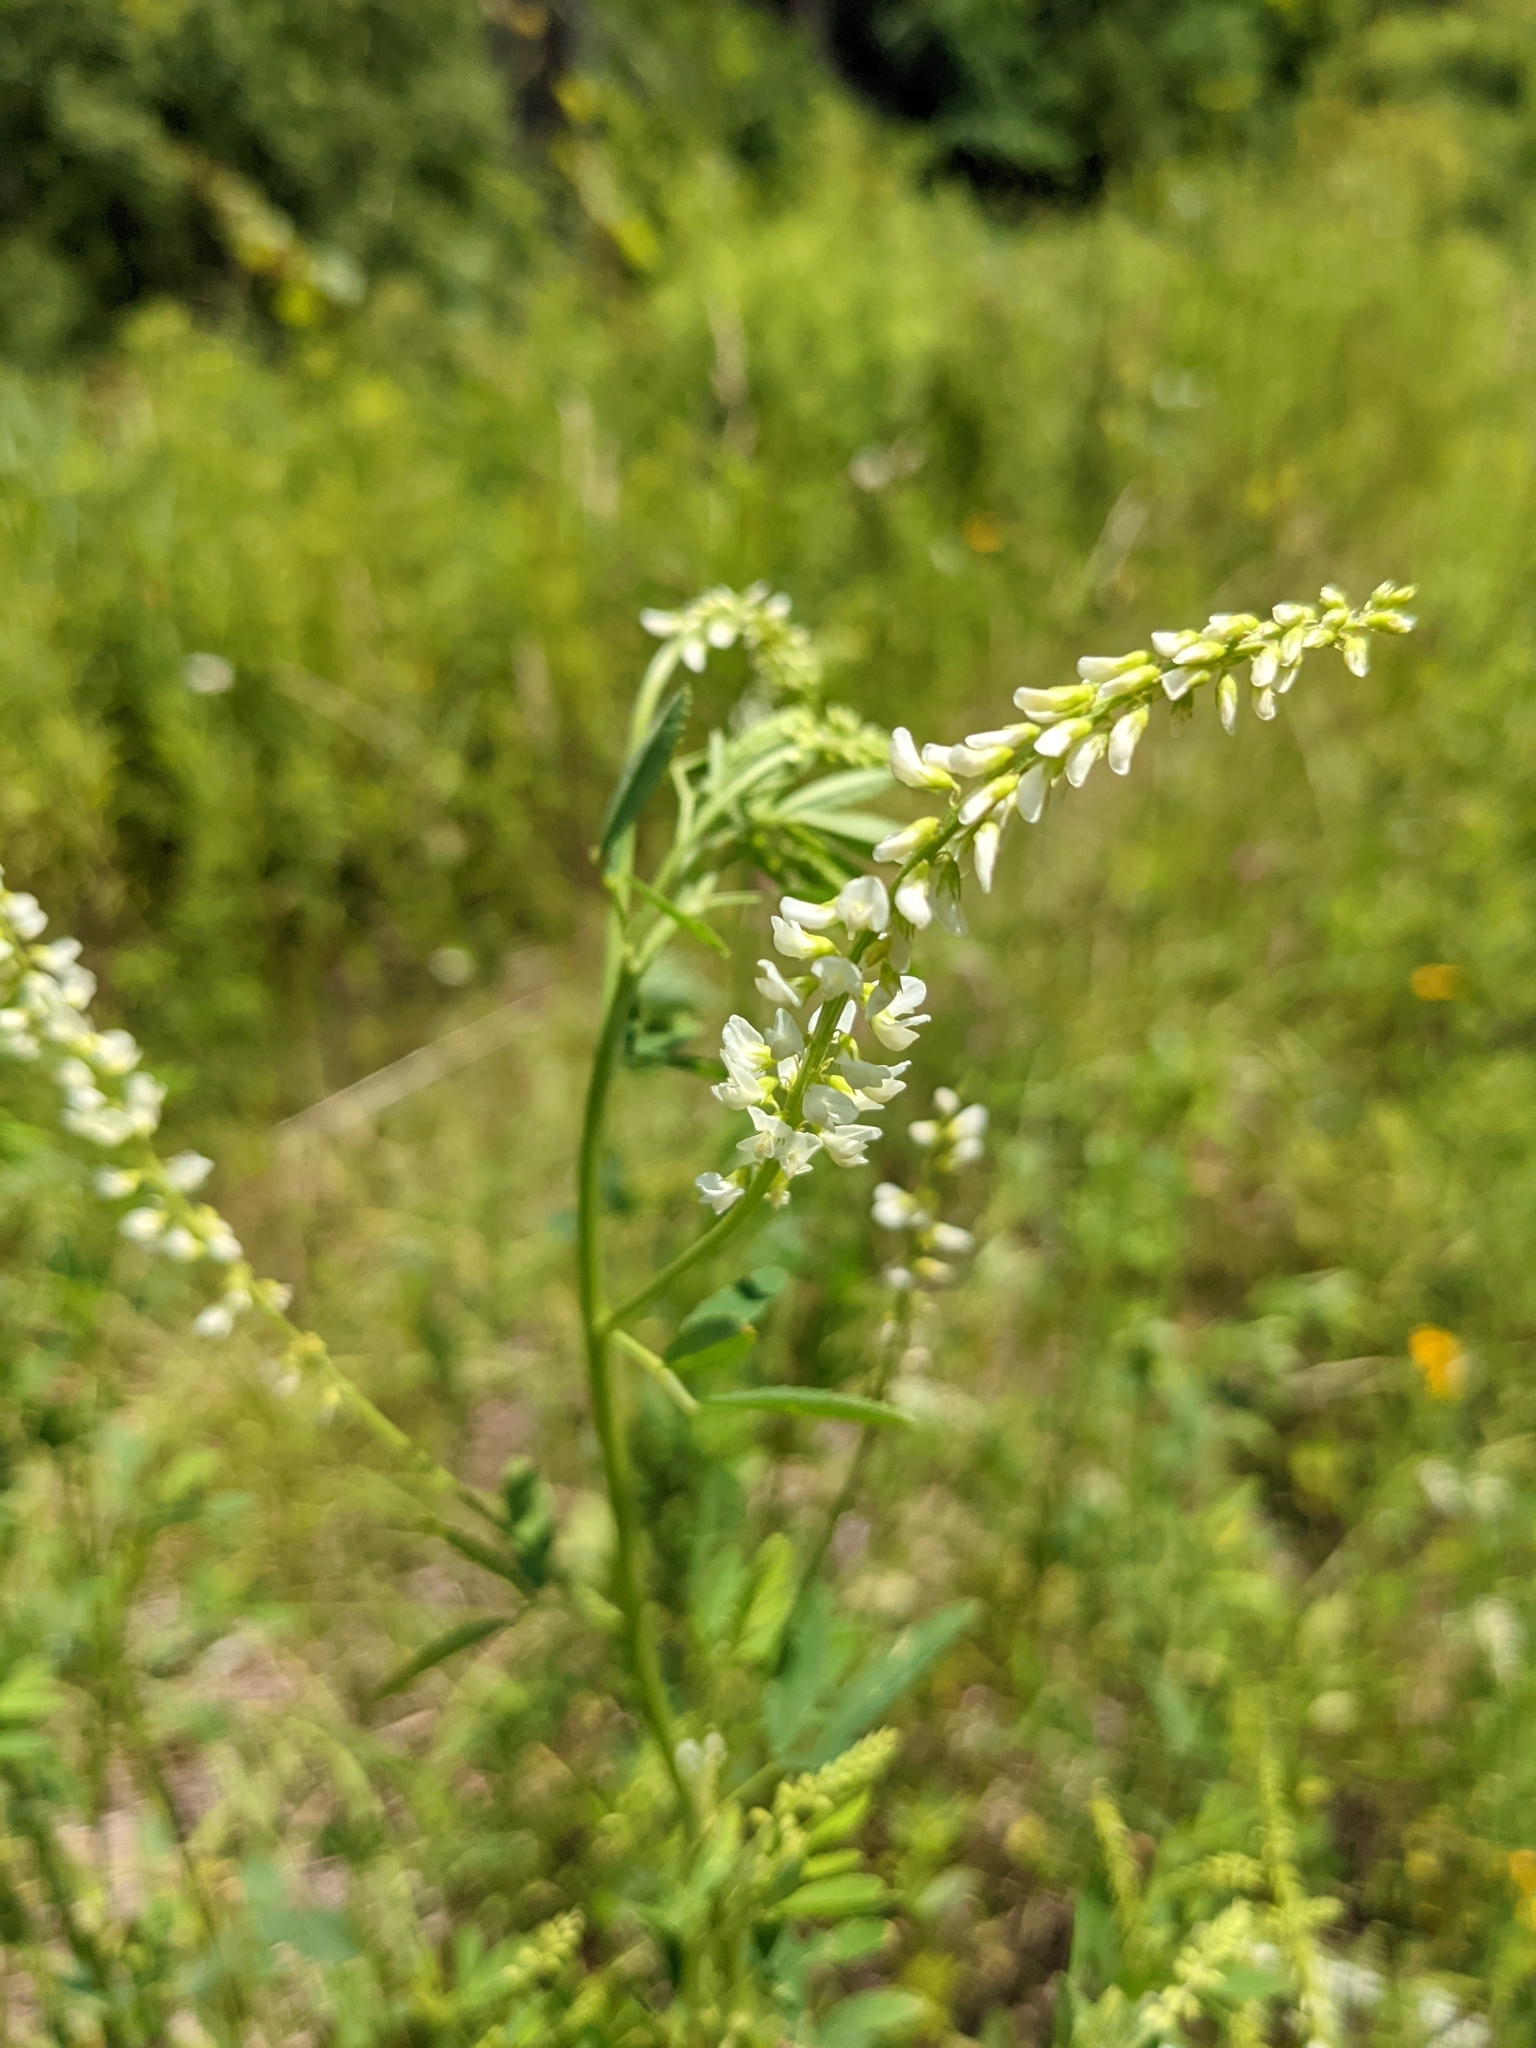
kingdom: Plantae
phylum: Tracheophyta
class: Magnoliopsida
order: Fabales
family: Fabaceae
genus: Melilotus
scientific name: Melilotus albus
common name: White melilot
